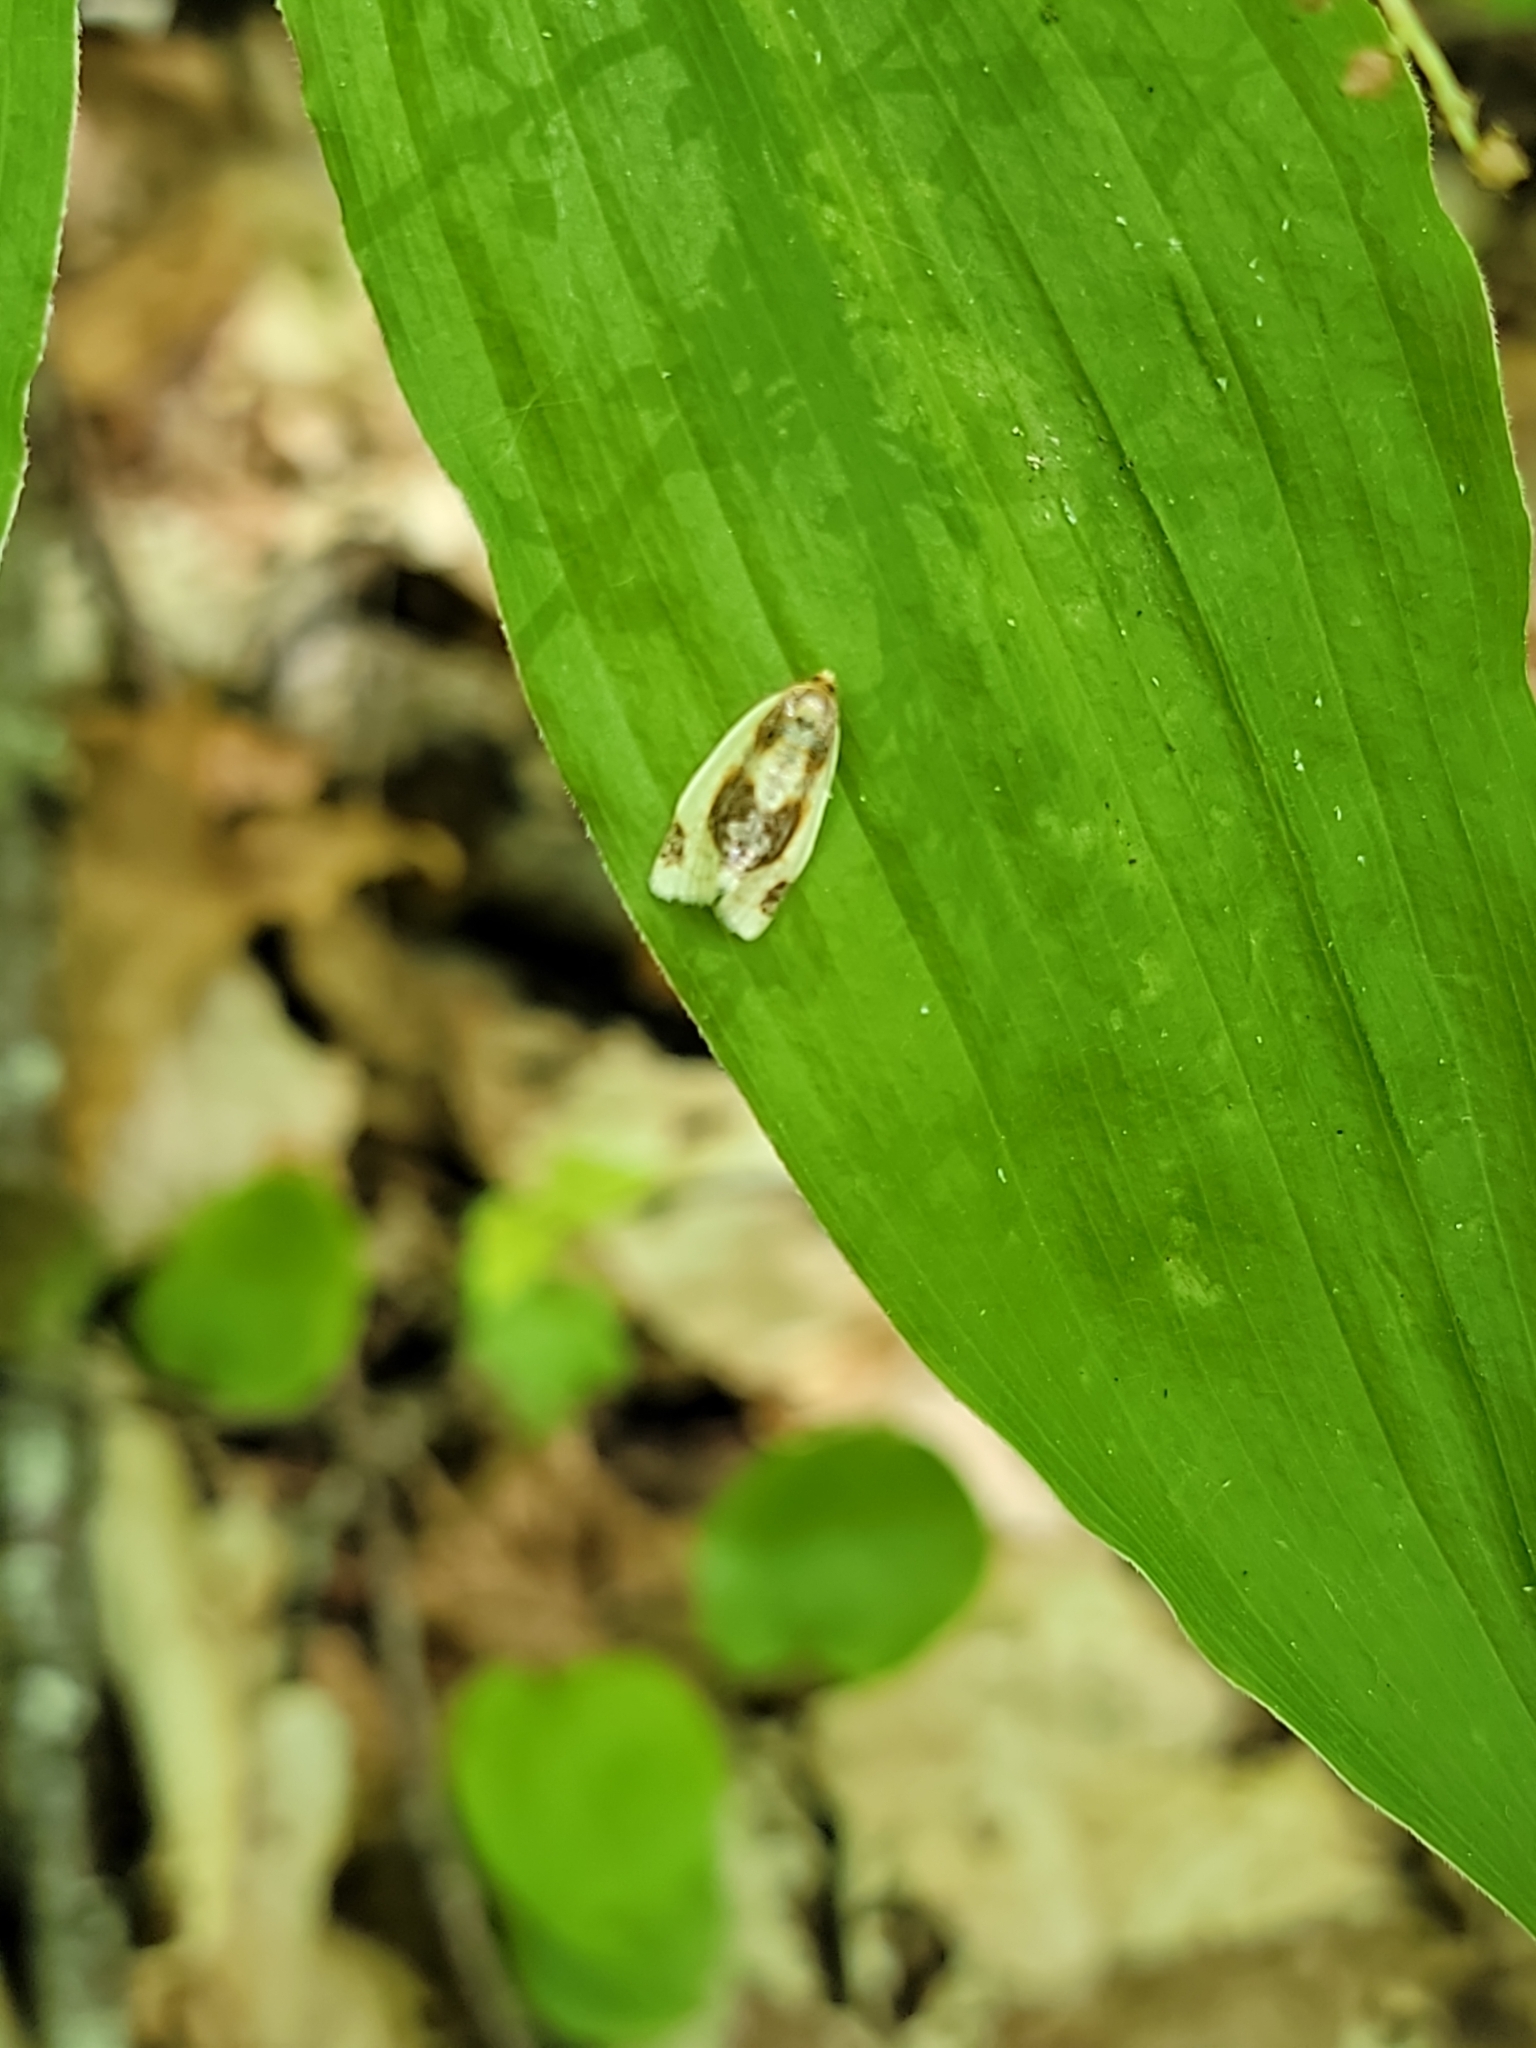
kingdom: Animalia
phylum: Arthropoda
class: Insecta
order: Lepidoptera
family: Tortricidae
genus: Clepsis
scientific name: Clepsis melaleucanus
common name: American apple tortrix
